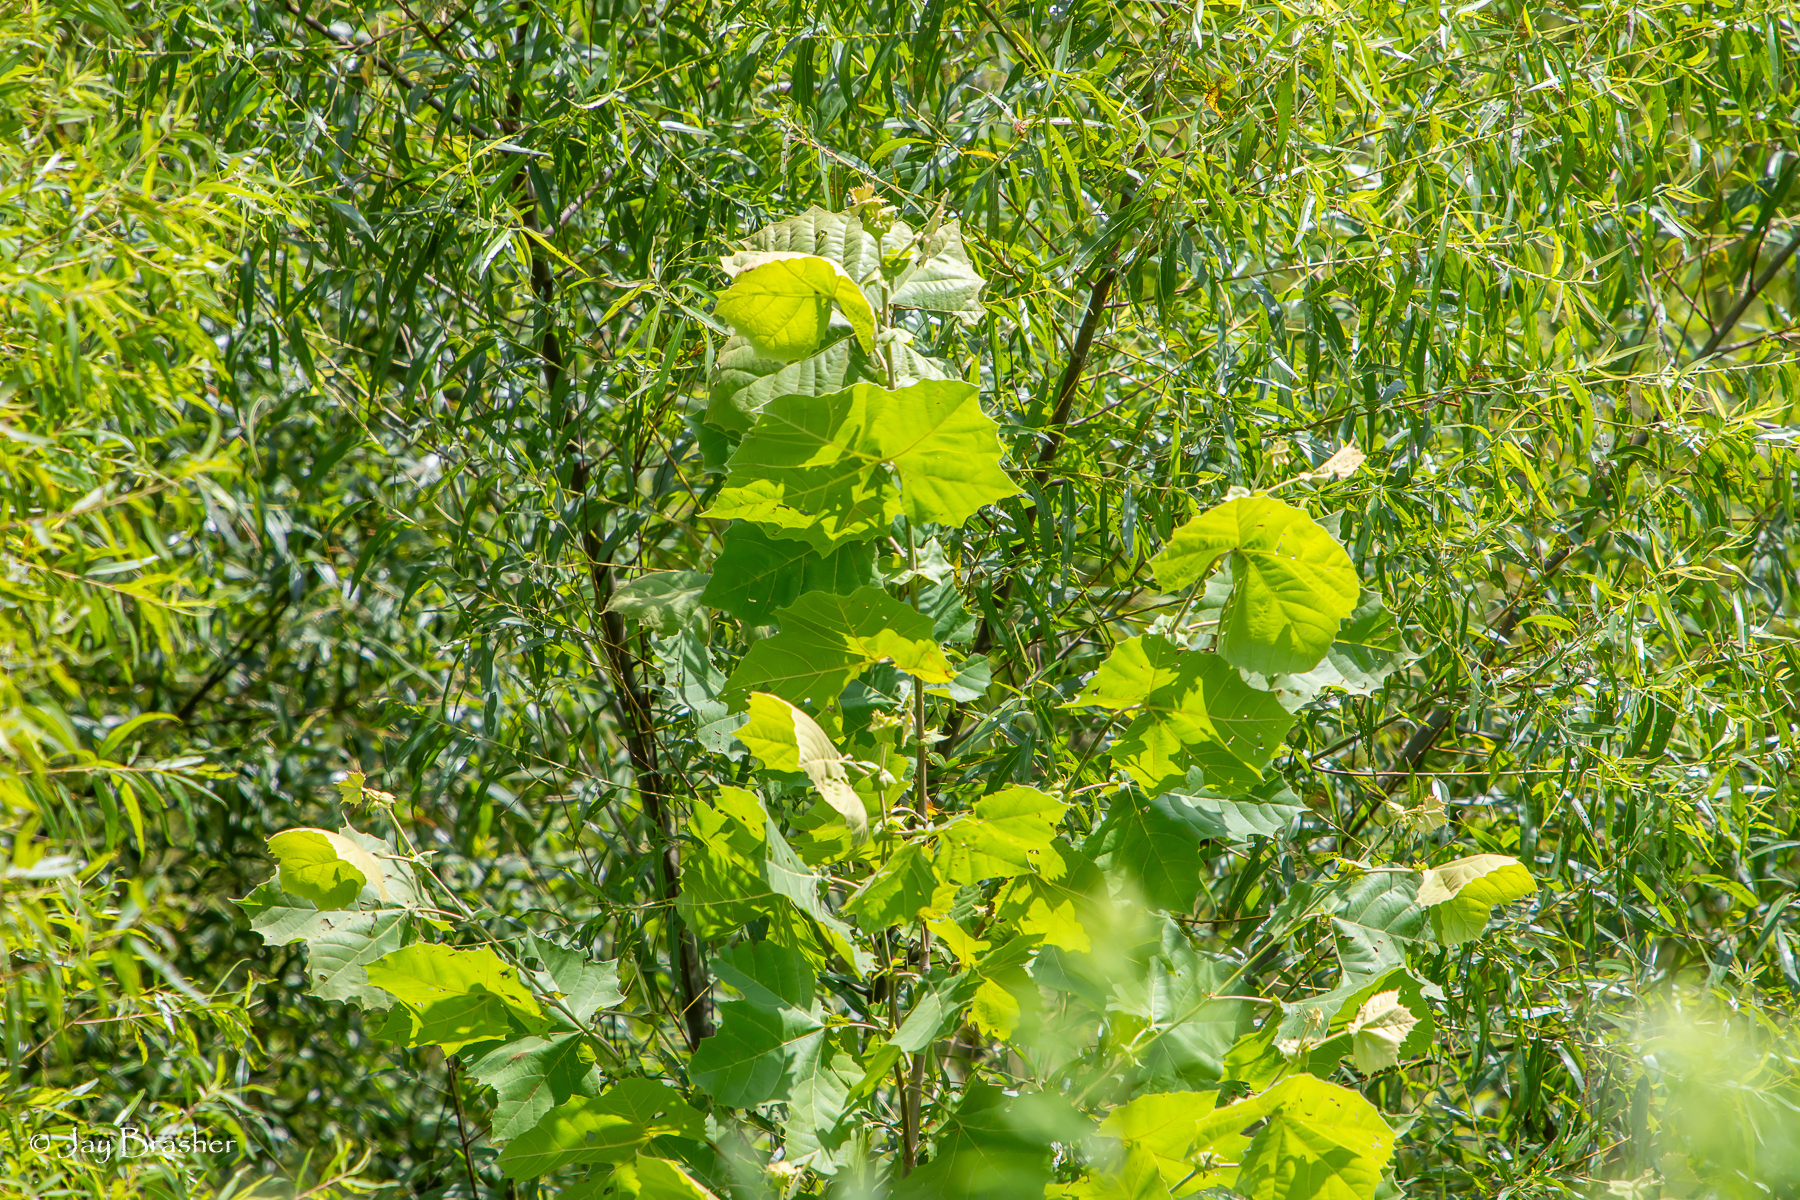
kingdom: Plantae
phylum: Tracheophyta
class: Magnoliopsida
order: Proteales
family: Platanaceae
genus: Platanus
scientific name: Platanus occidentalis
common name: American sycamore
